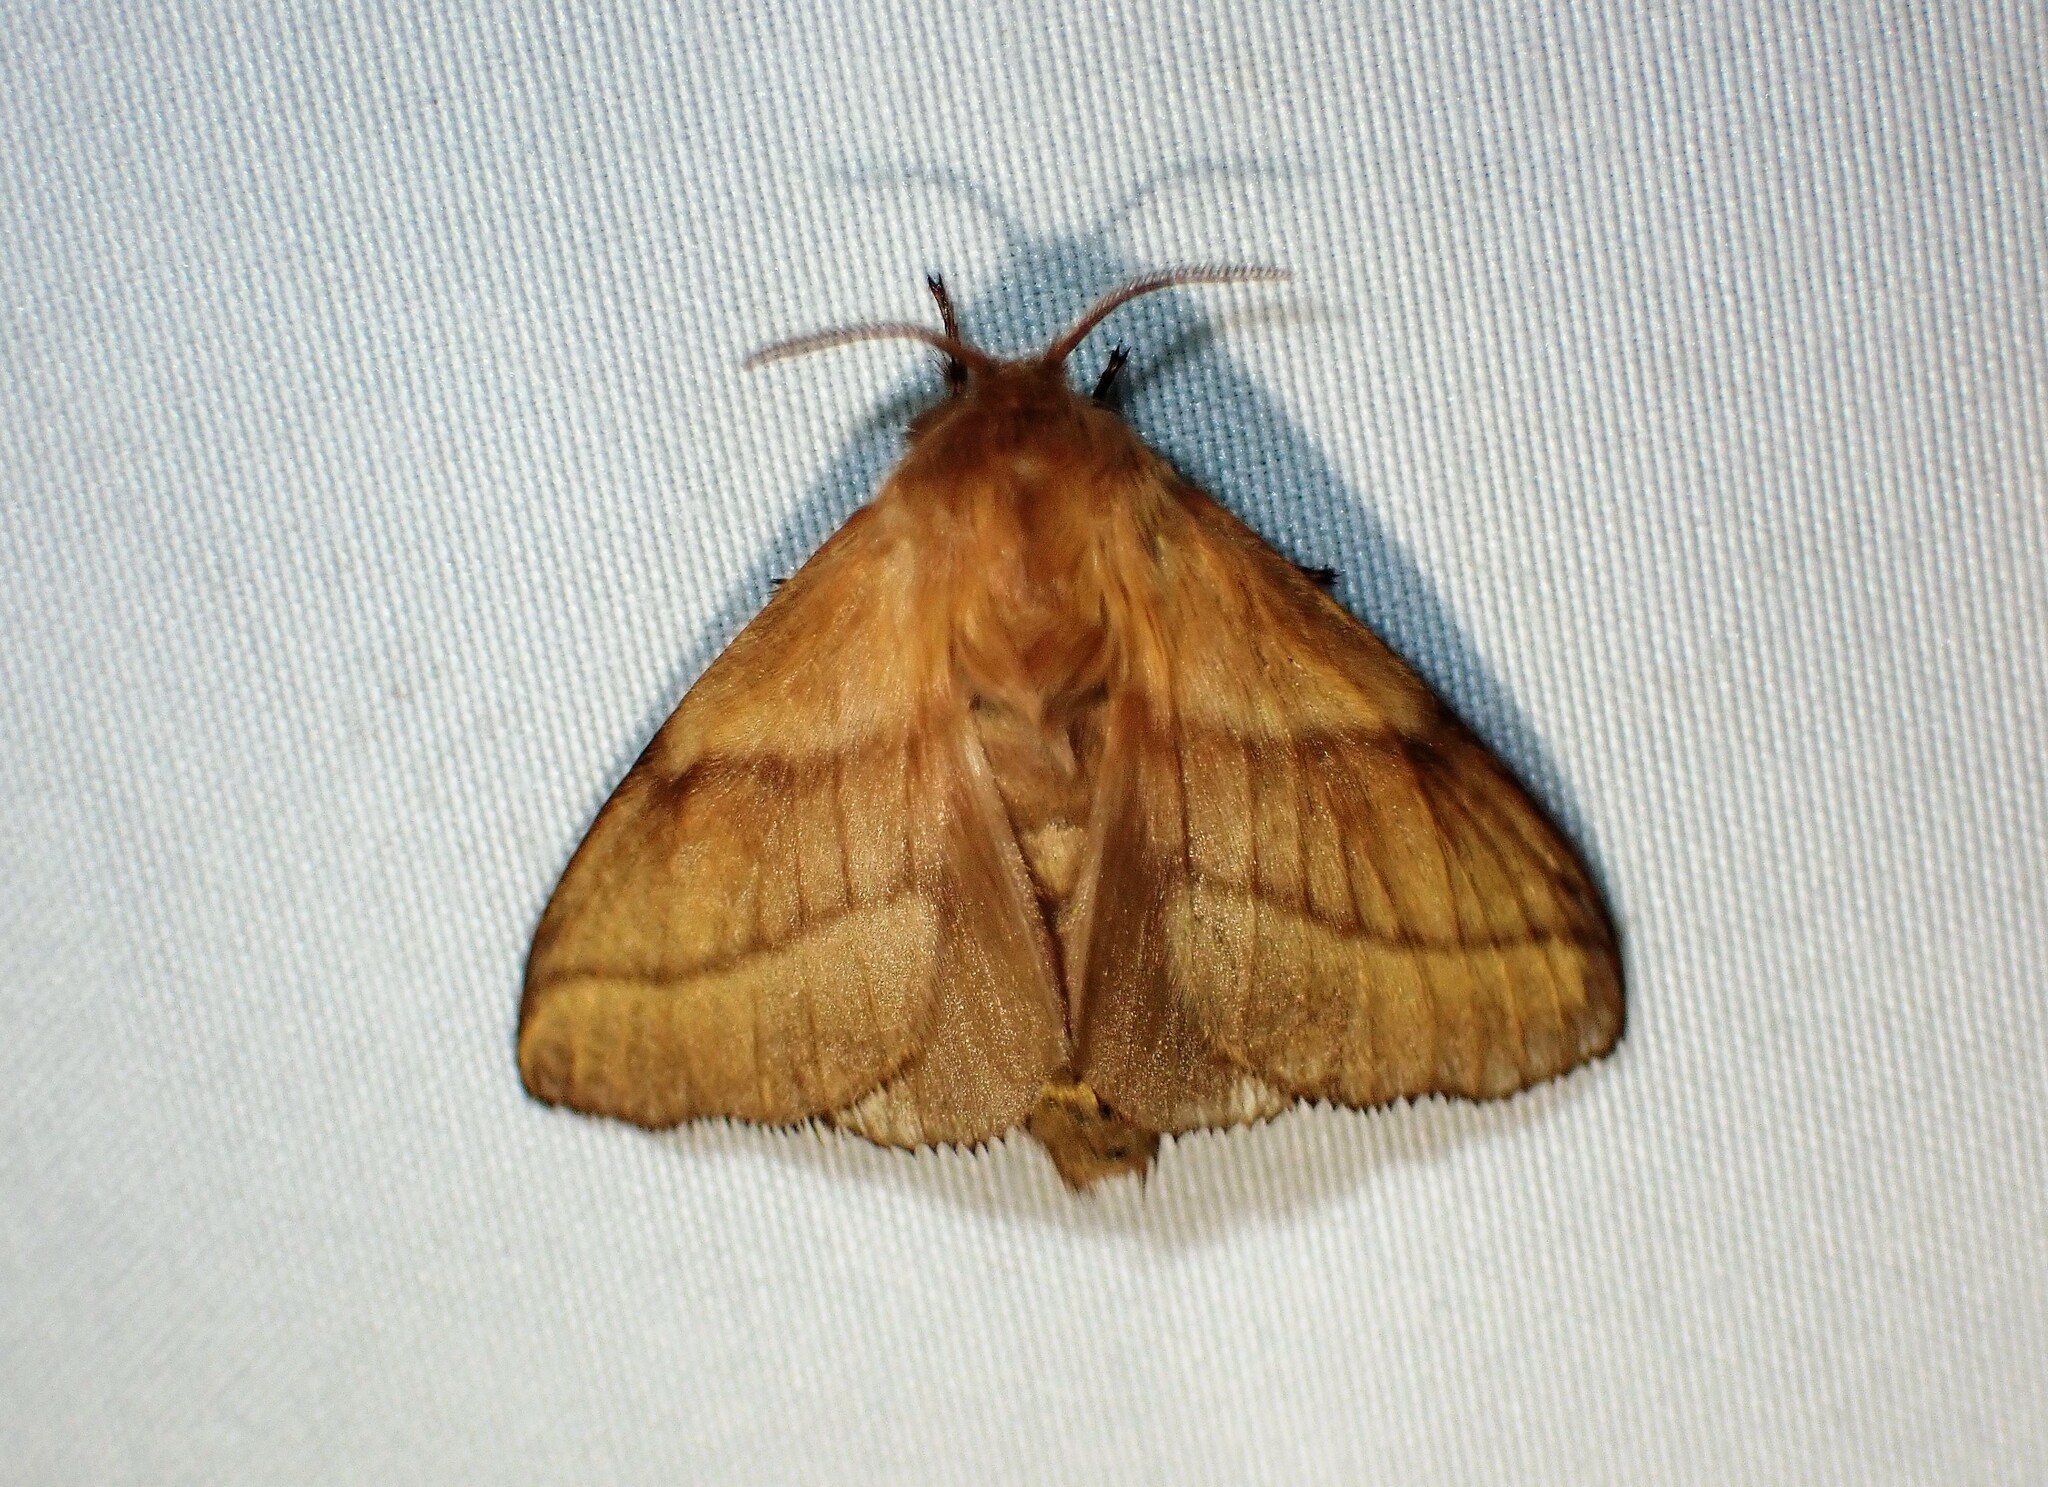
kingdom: Animalia
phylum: Arthropoda
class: Insecta
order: Lepidoptera
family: Lasiocampidae
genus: Malacosoma
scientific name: Malacosoma disstria
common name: Forest tent caterpillar
